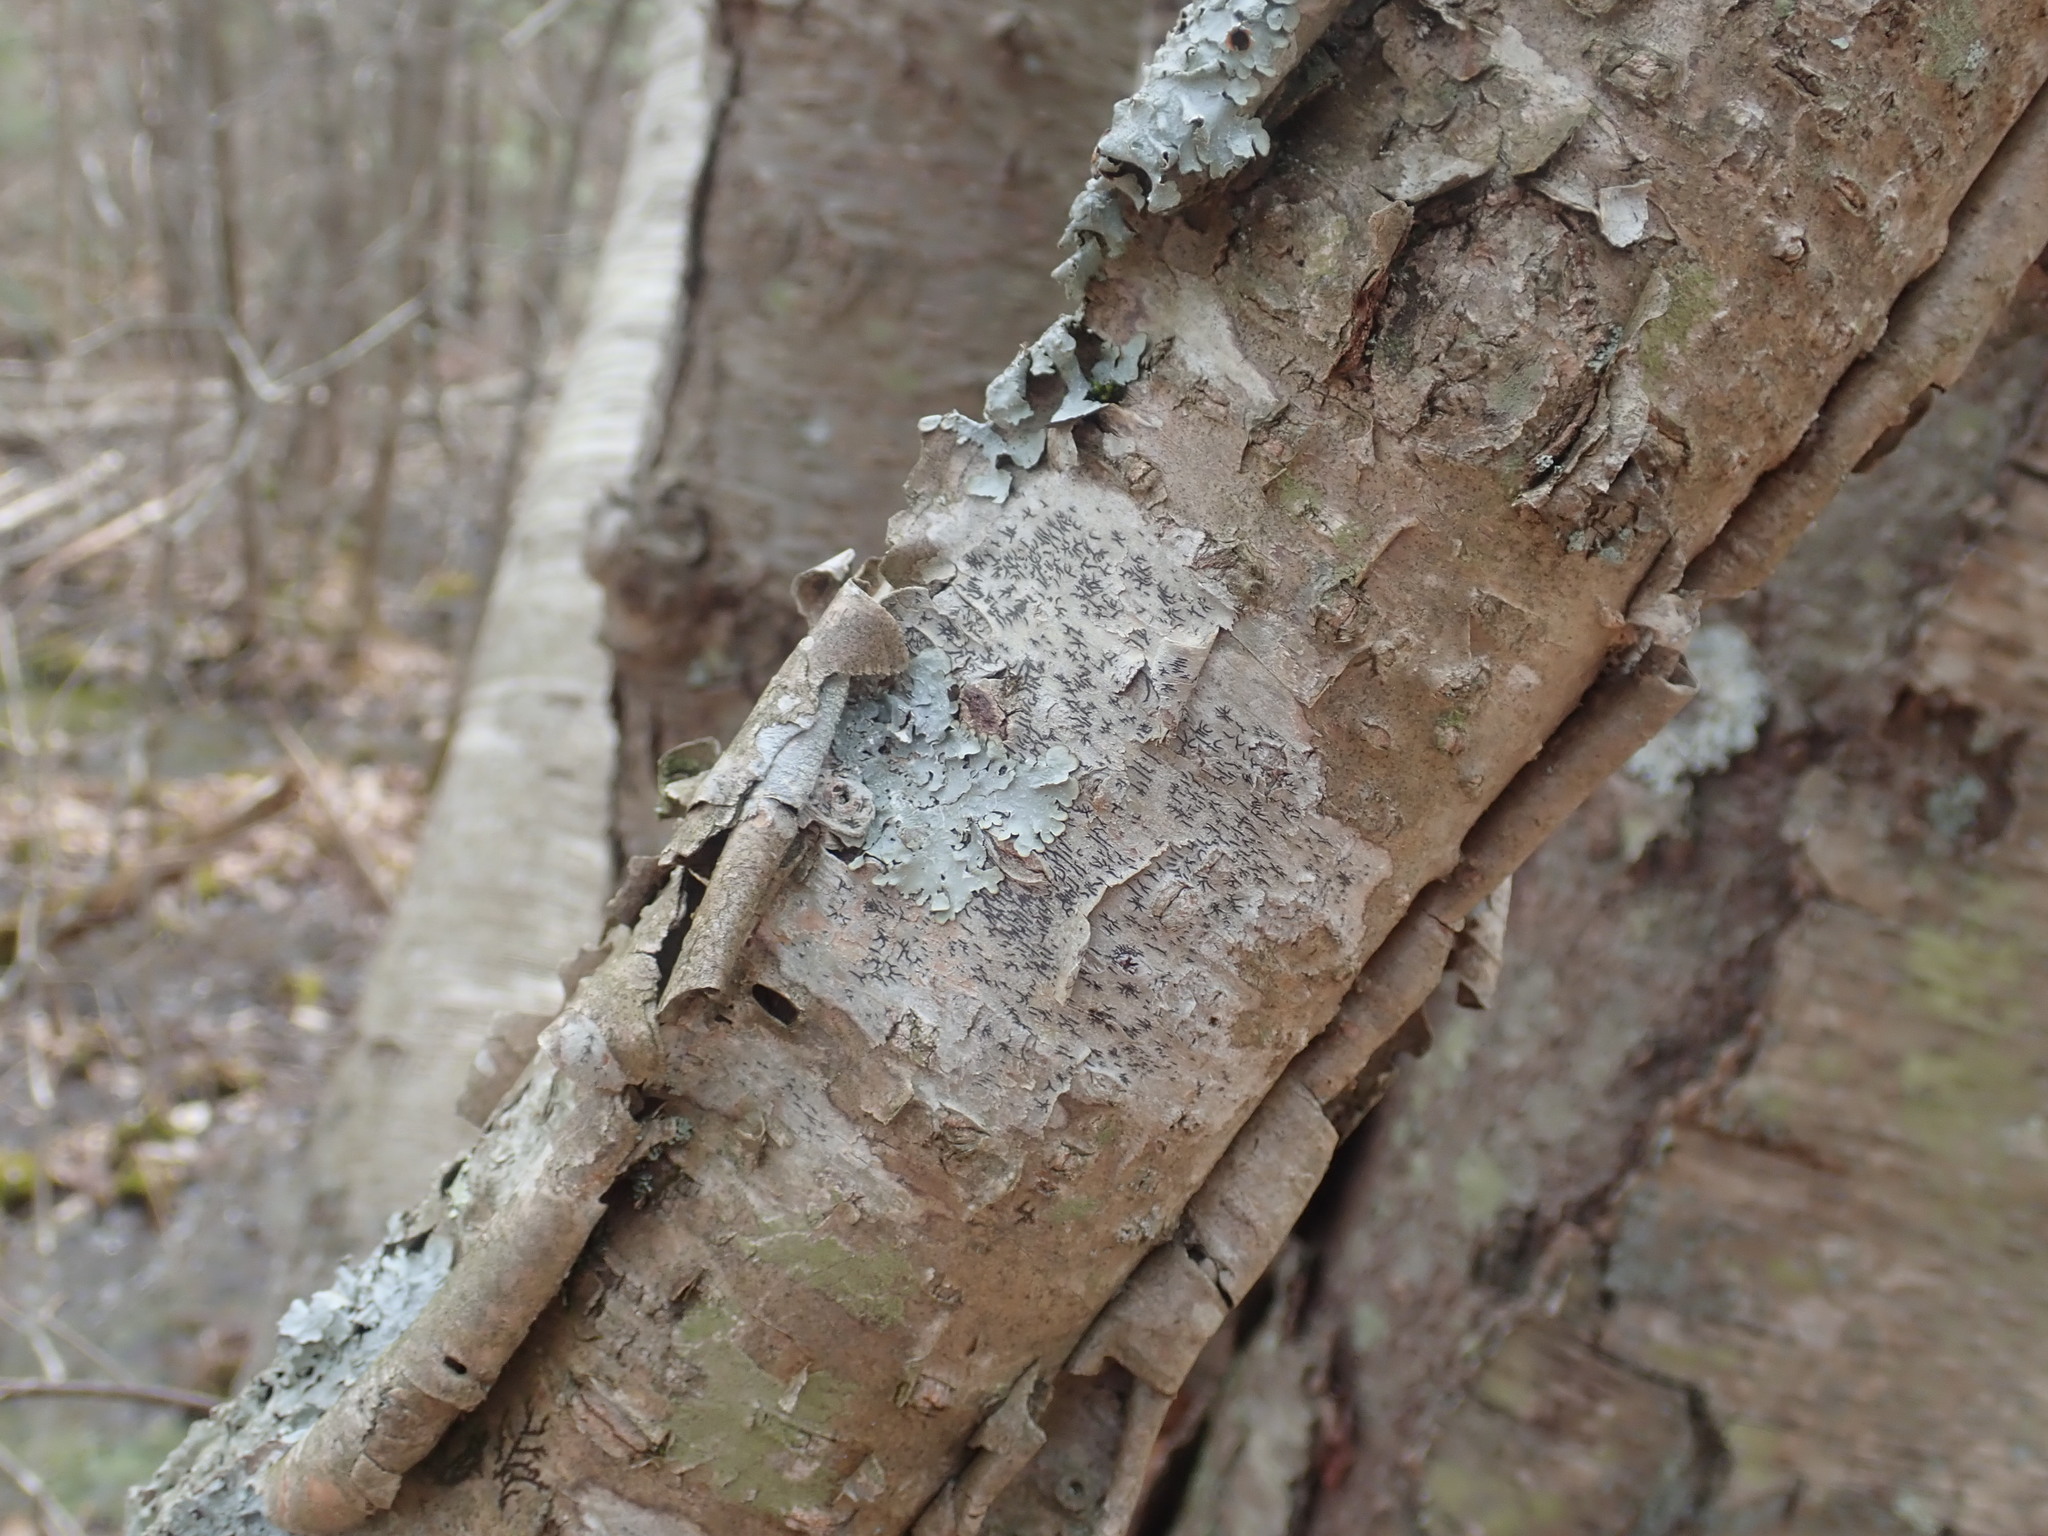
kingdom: Fungi
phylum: Ascomycota
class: Lecanoromycetes
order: Ostropales
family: Graphidaceae
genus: Graphis
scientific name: Graphis scripta
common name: Script lichen
